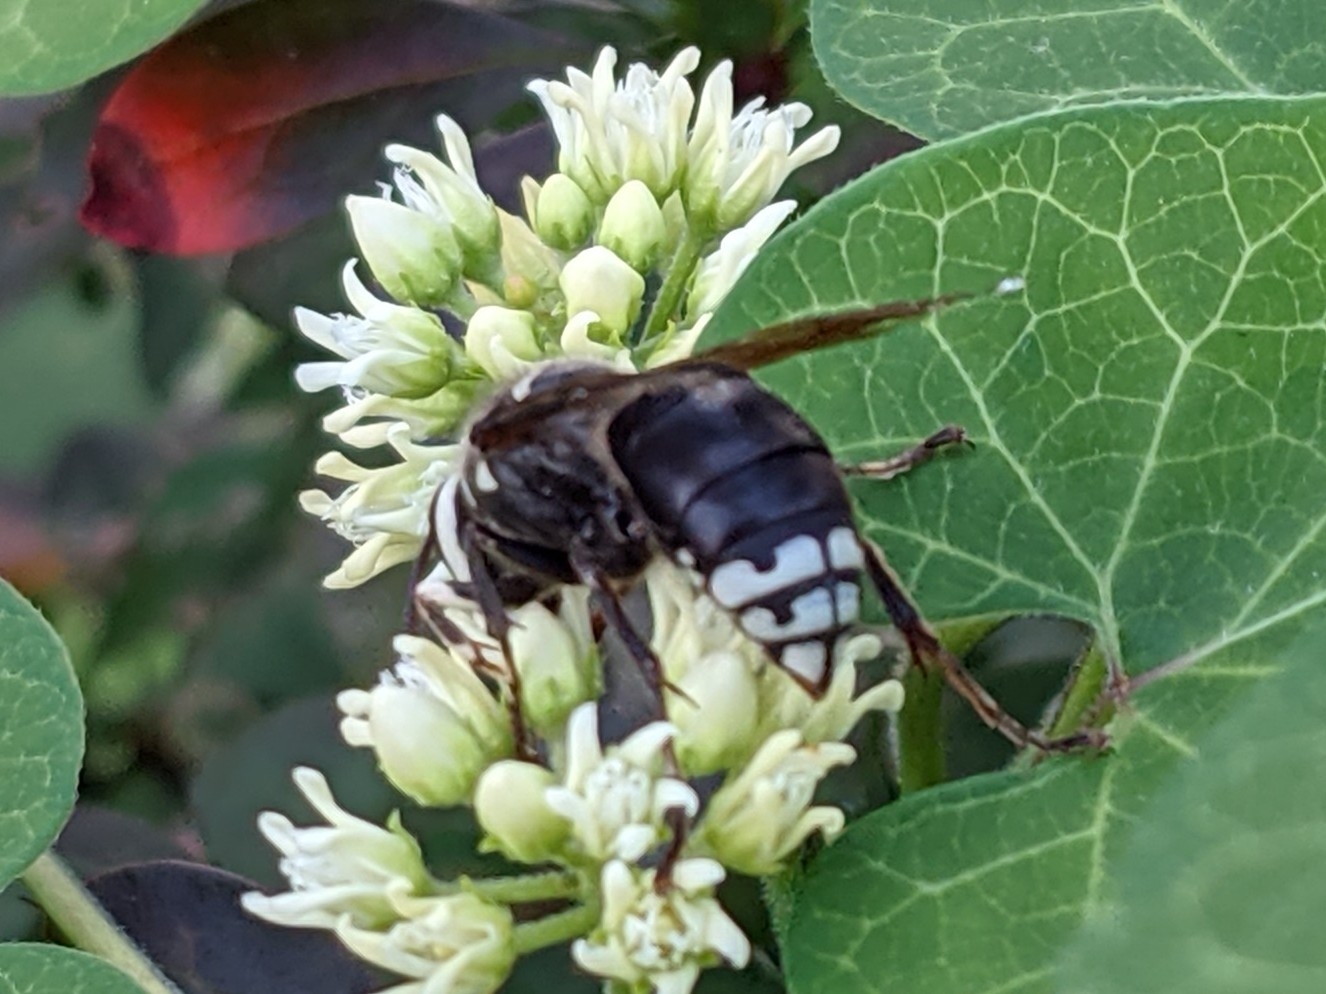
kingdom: Animalia
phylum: Arthropoda
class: Insecta
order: Hymenoptera
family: Vespidae
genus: Dolichovespula
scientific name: Dolichovespula maculata
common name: Bald-faced hornet
